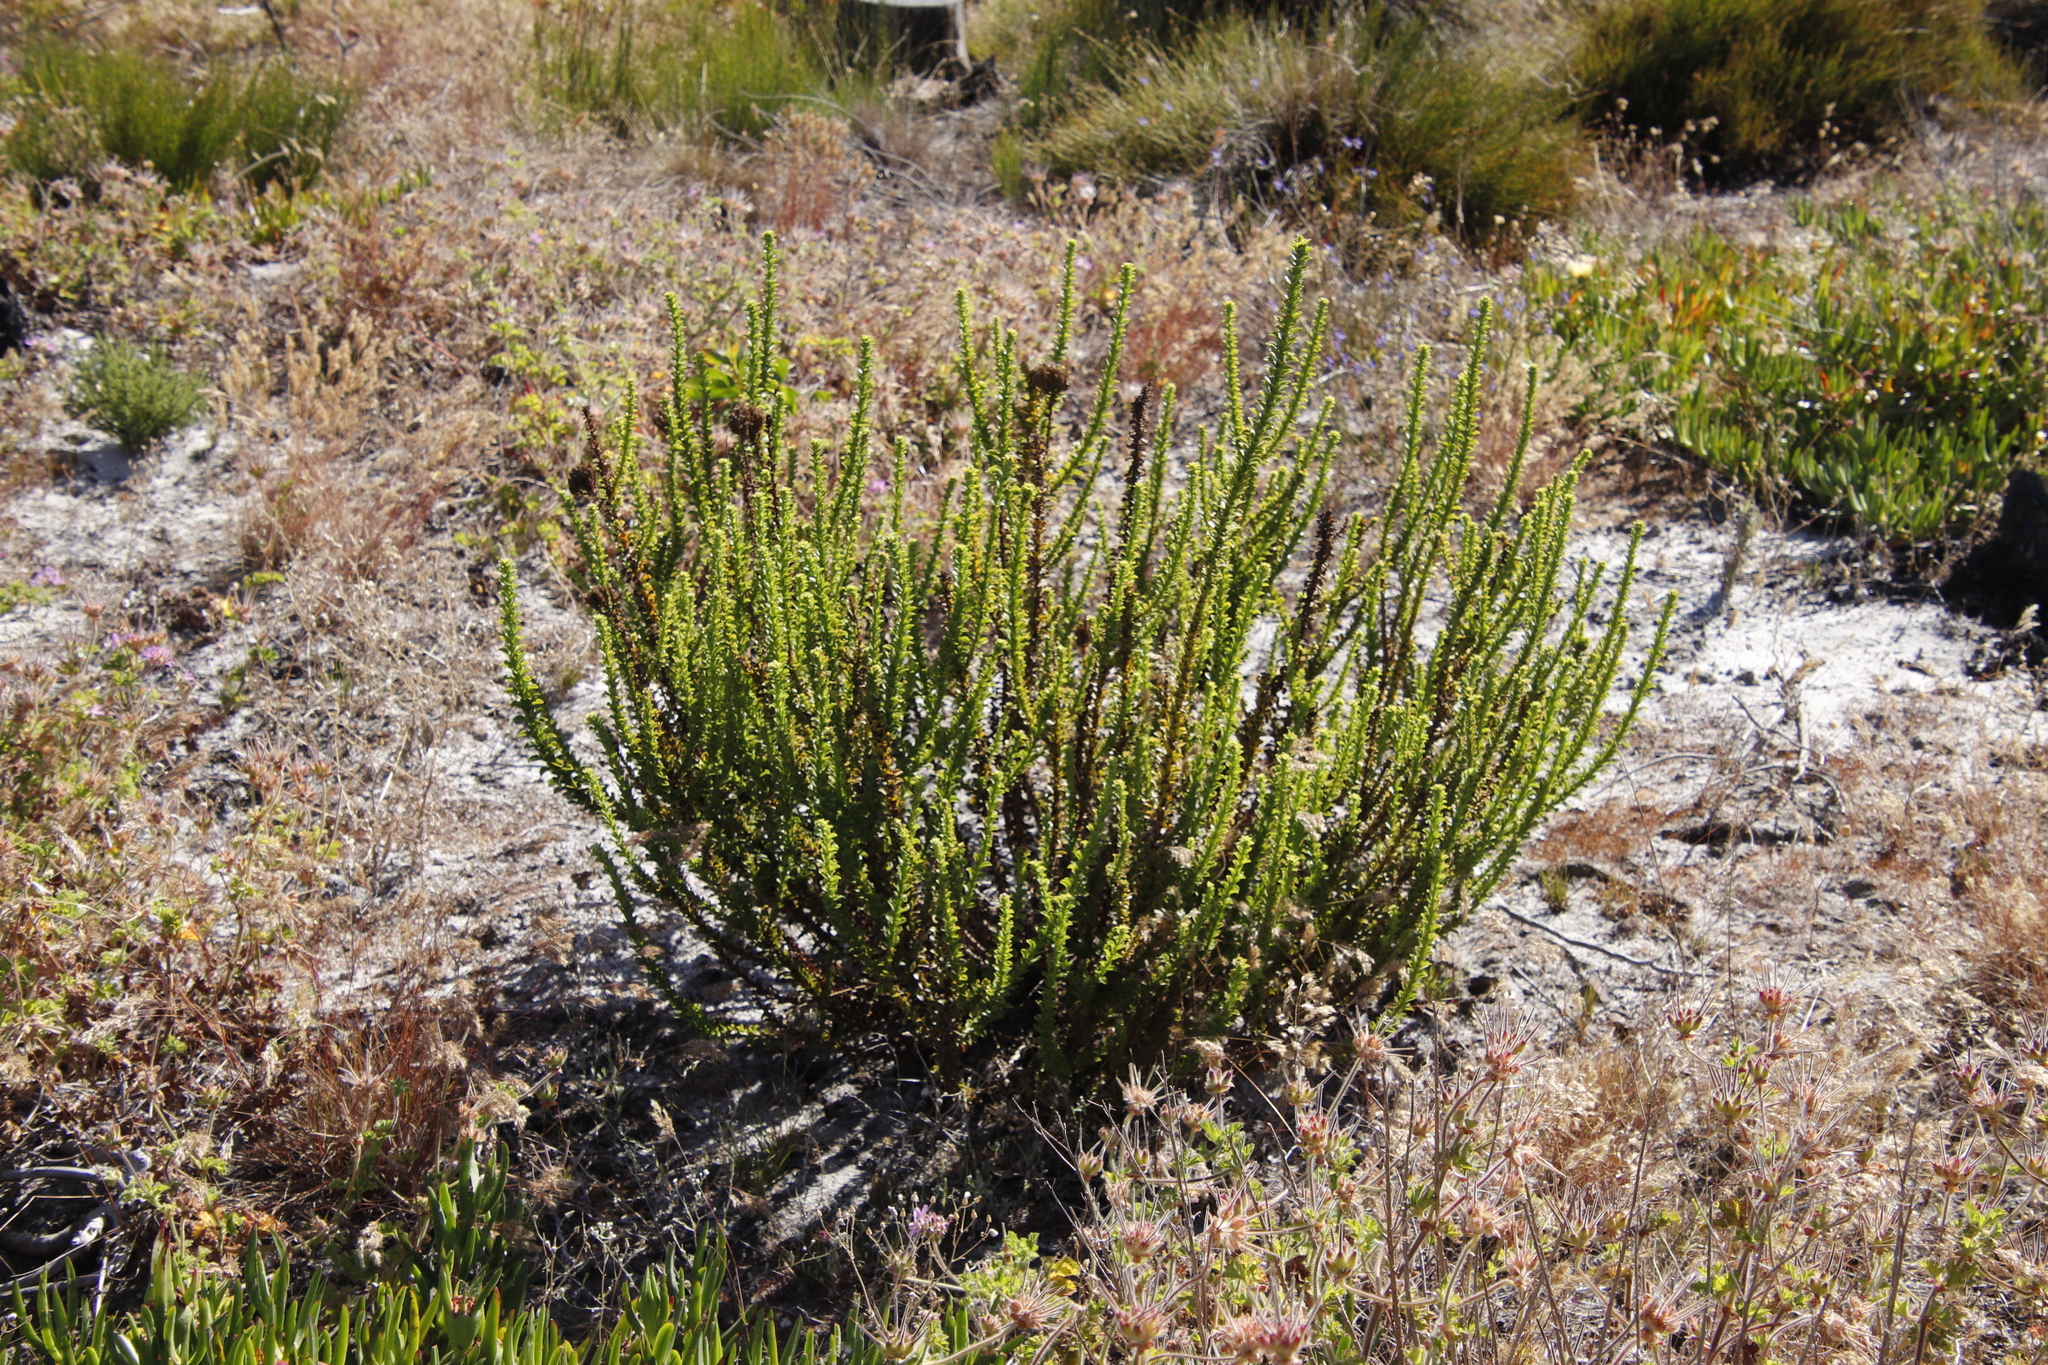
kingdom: Plantae
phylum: Tracheophyta
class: Magnoliopsida
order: Lamiales
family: Scrophulariaceae
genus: Pseudoselago
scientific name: Pseudoselago serrata
